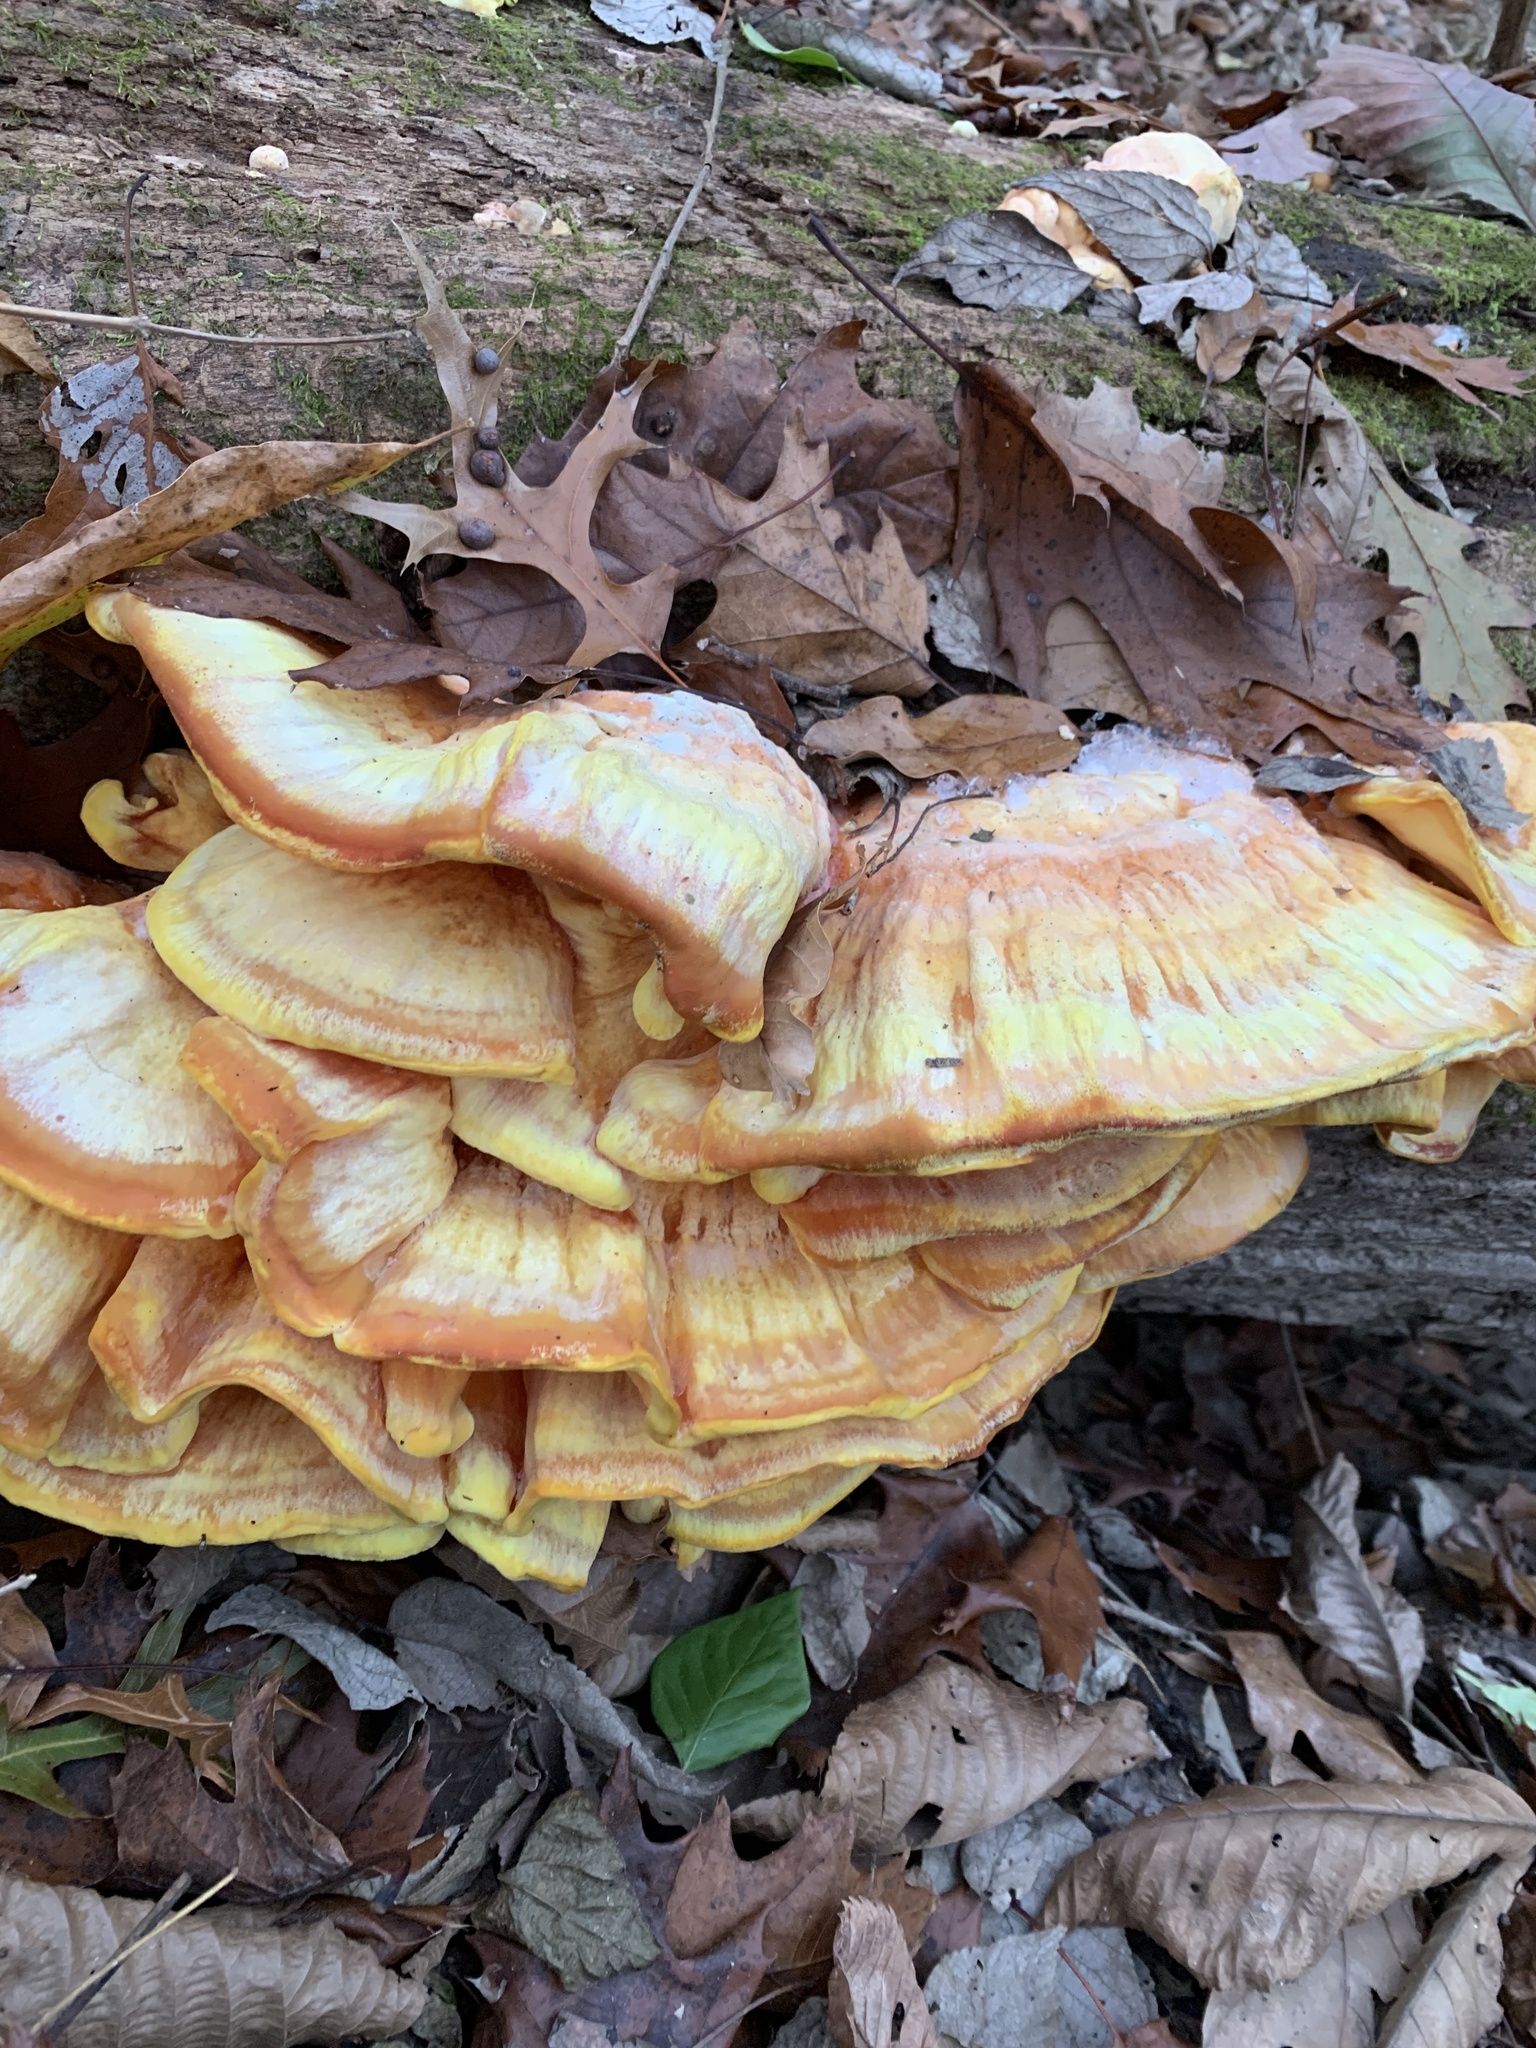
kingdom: Fungi
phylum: Basidiomycota
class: Agaricomycetes
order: Polyporales
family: Laetiporaceae
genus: Laetiporus
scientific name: Laetiporus sulphureus
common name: Chicken of the woods
